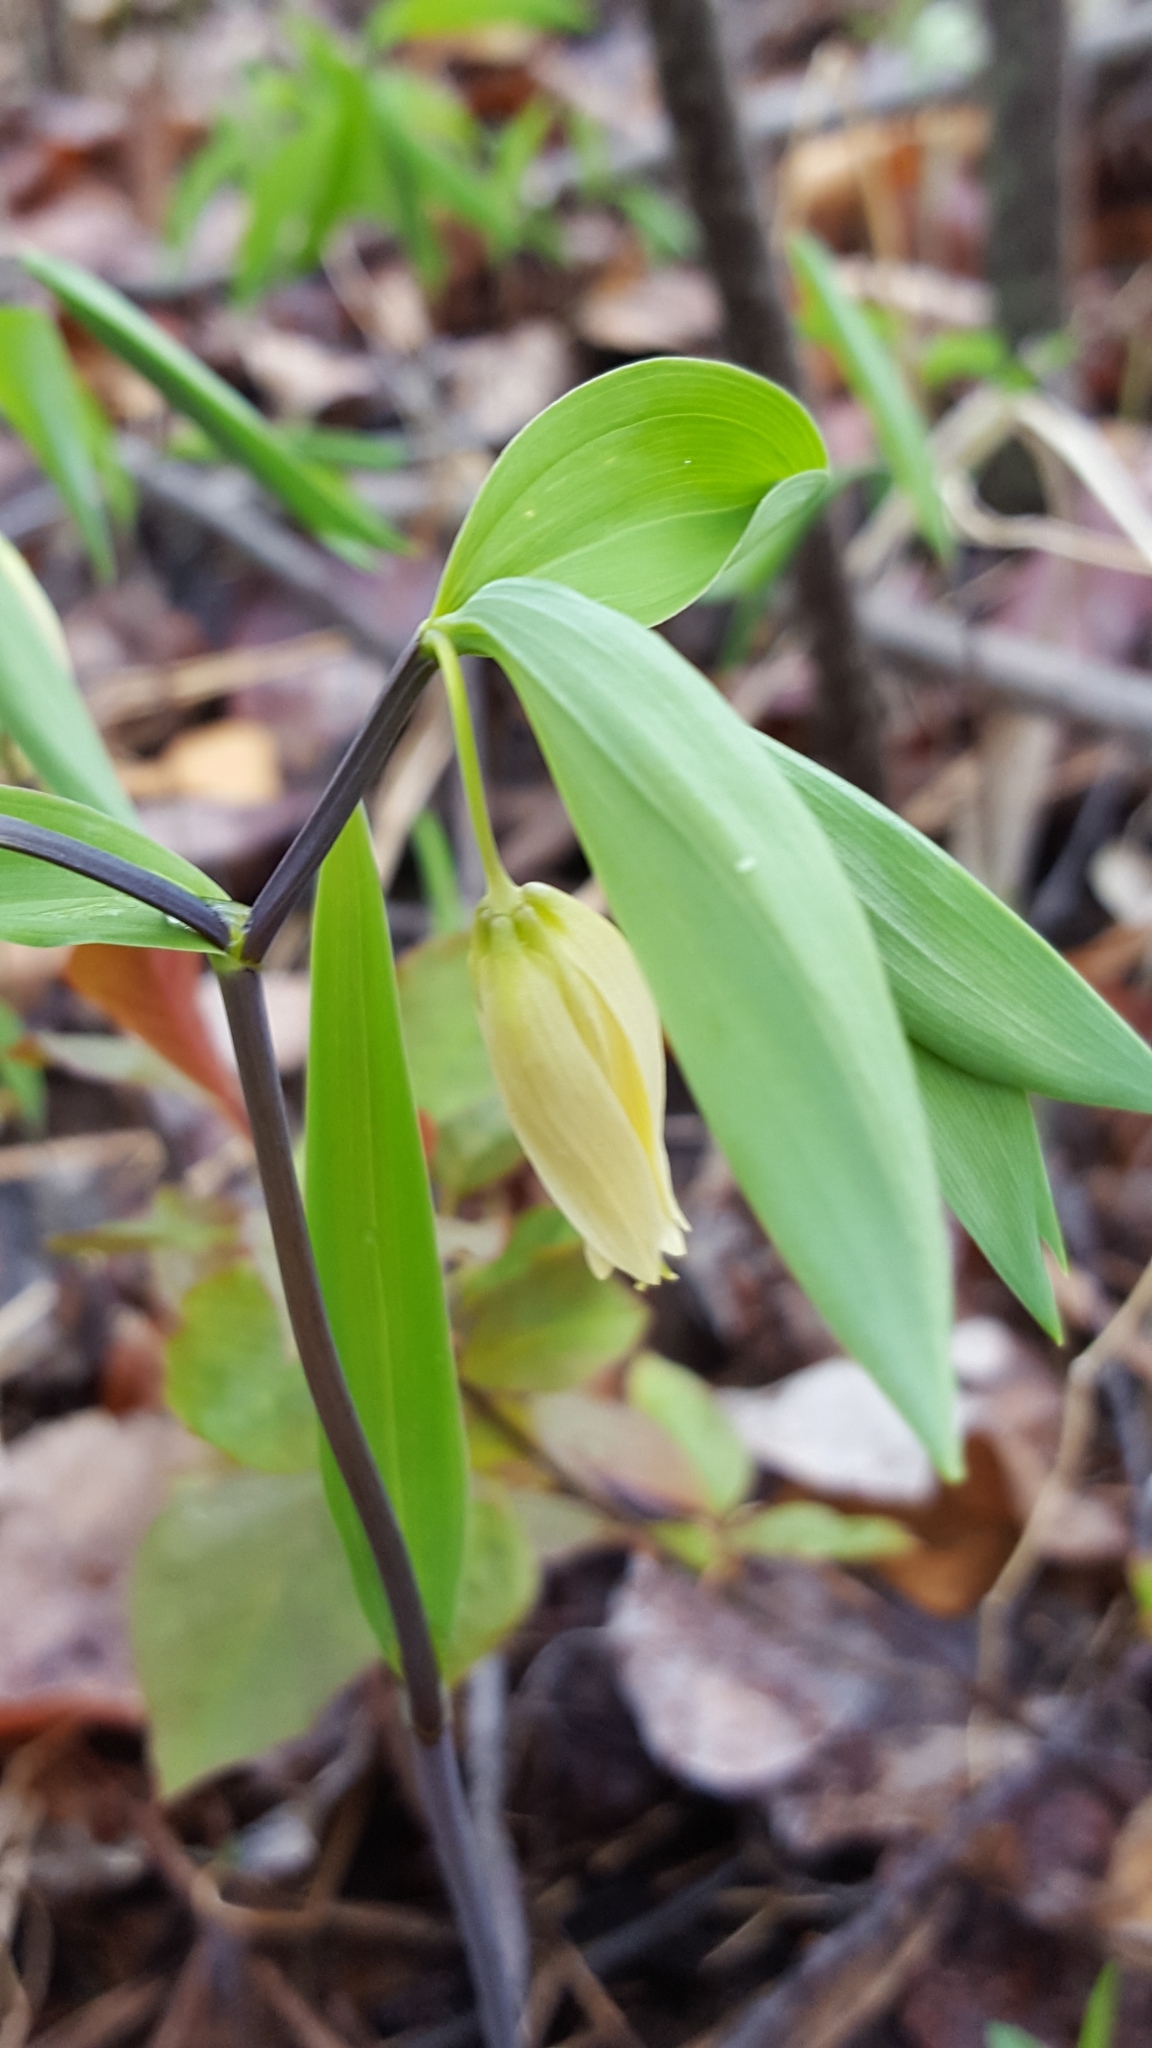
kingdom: Plantae
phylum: Tracheophyta
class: Liliopsida
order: Liliales
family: Colchicaceae
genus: Uvularia
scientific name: Uvularia sessilifolia
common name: Straw-lily
